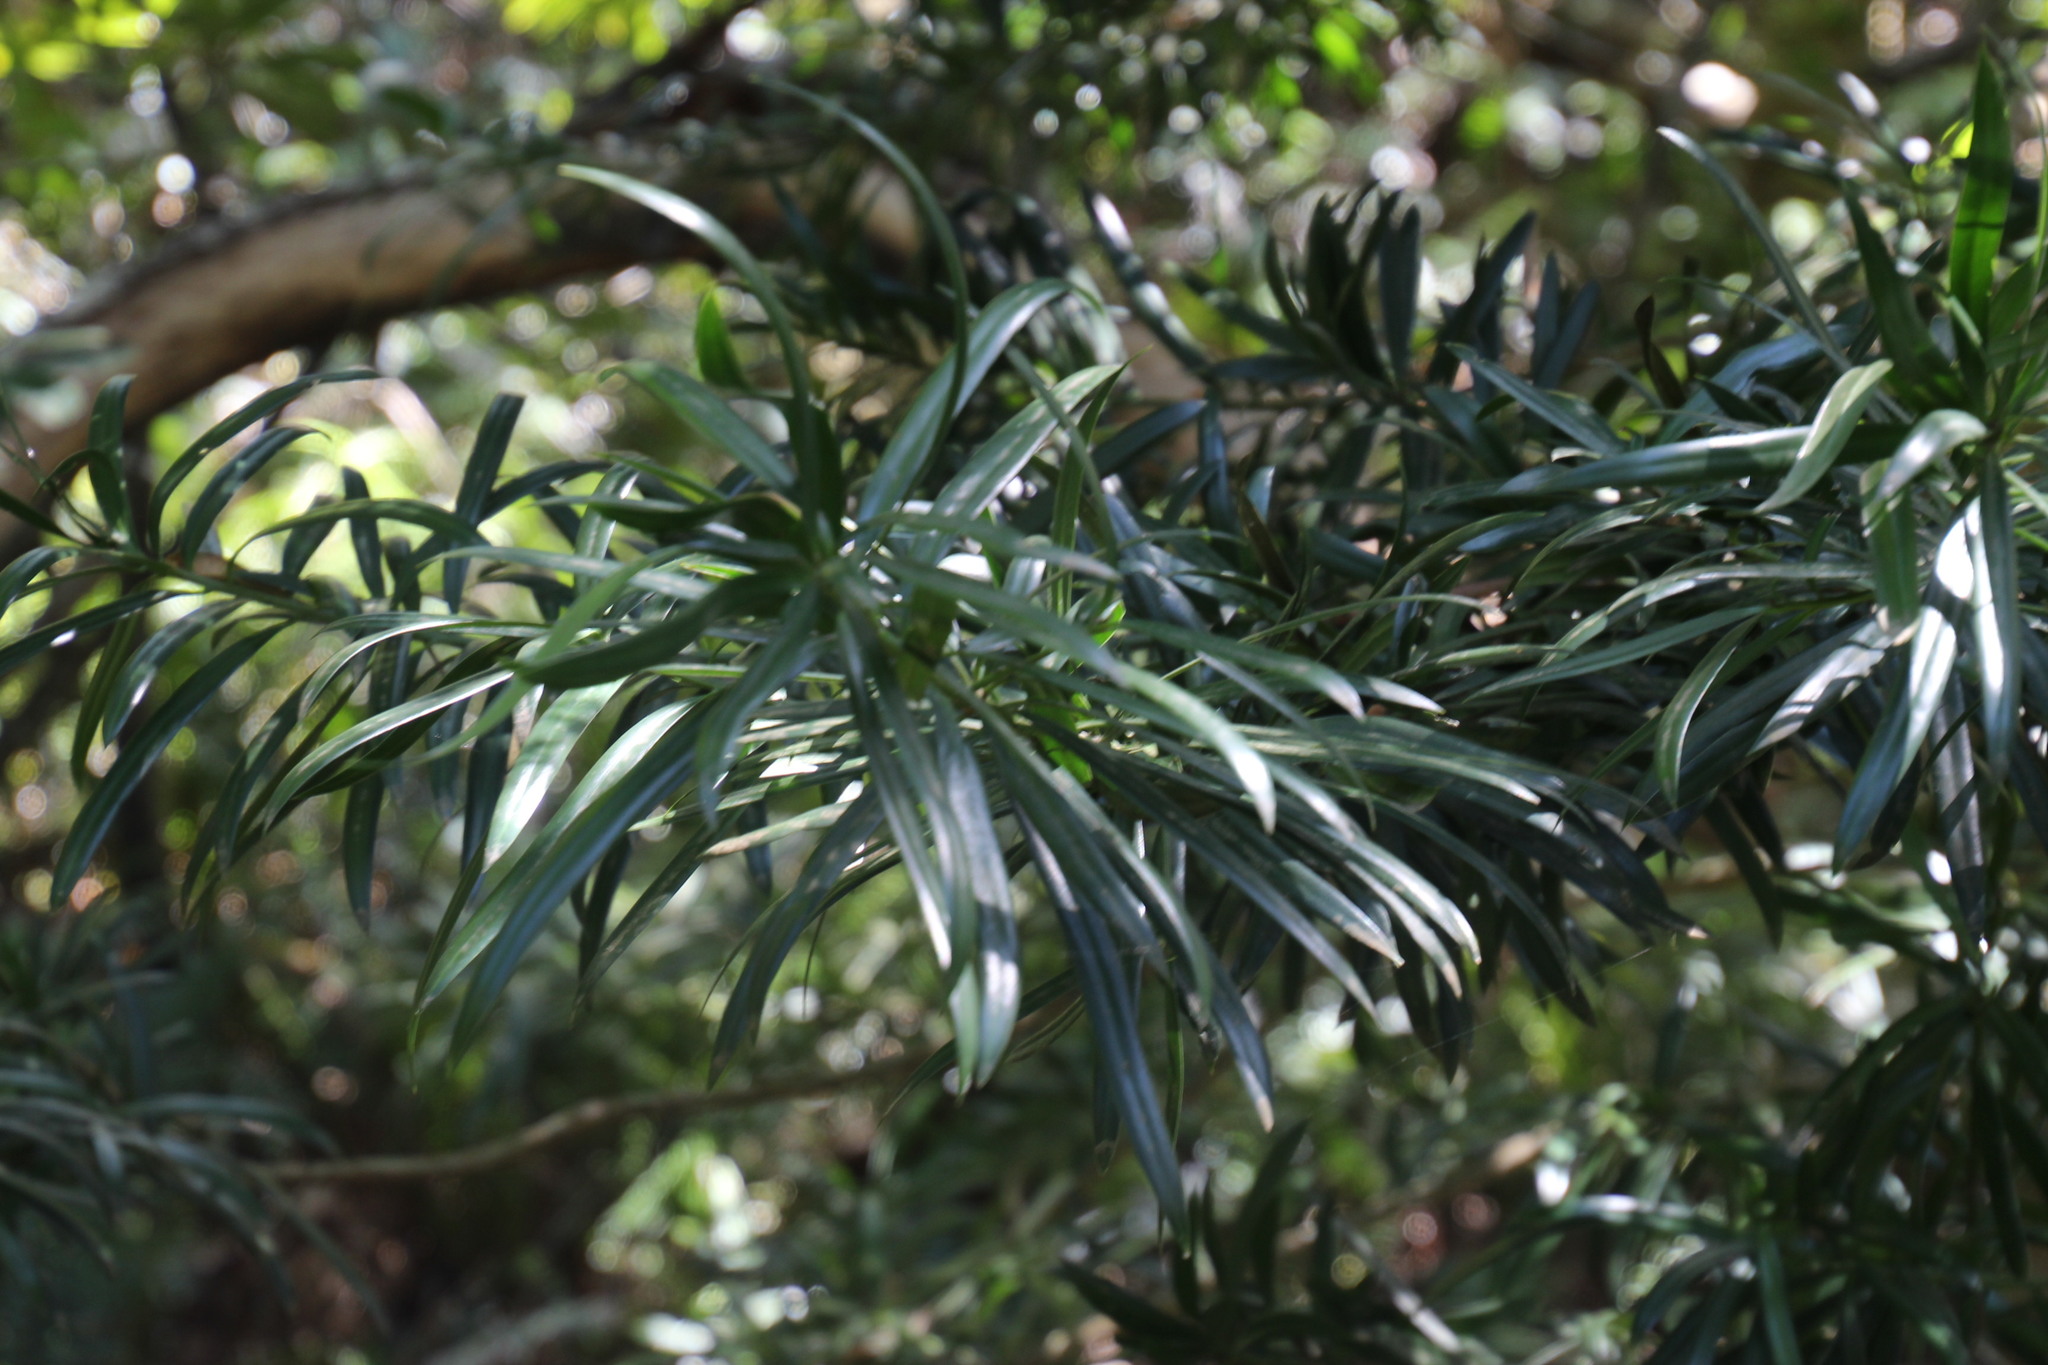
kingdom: Plantae
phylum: Tracheophyta
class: Pinopsida
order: Pinales
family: Podocarpaceae
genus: Podocarpus
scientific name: Podocarpus latifolius
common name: True yellowwood
